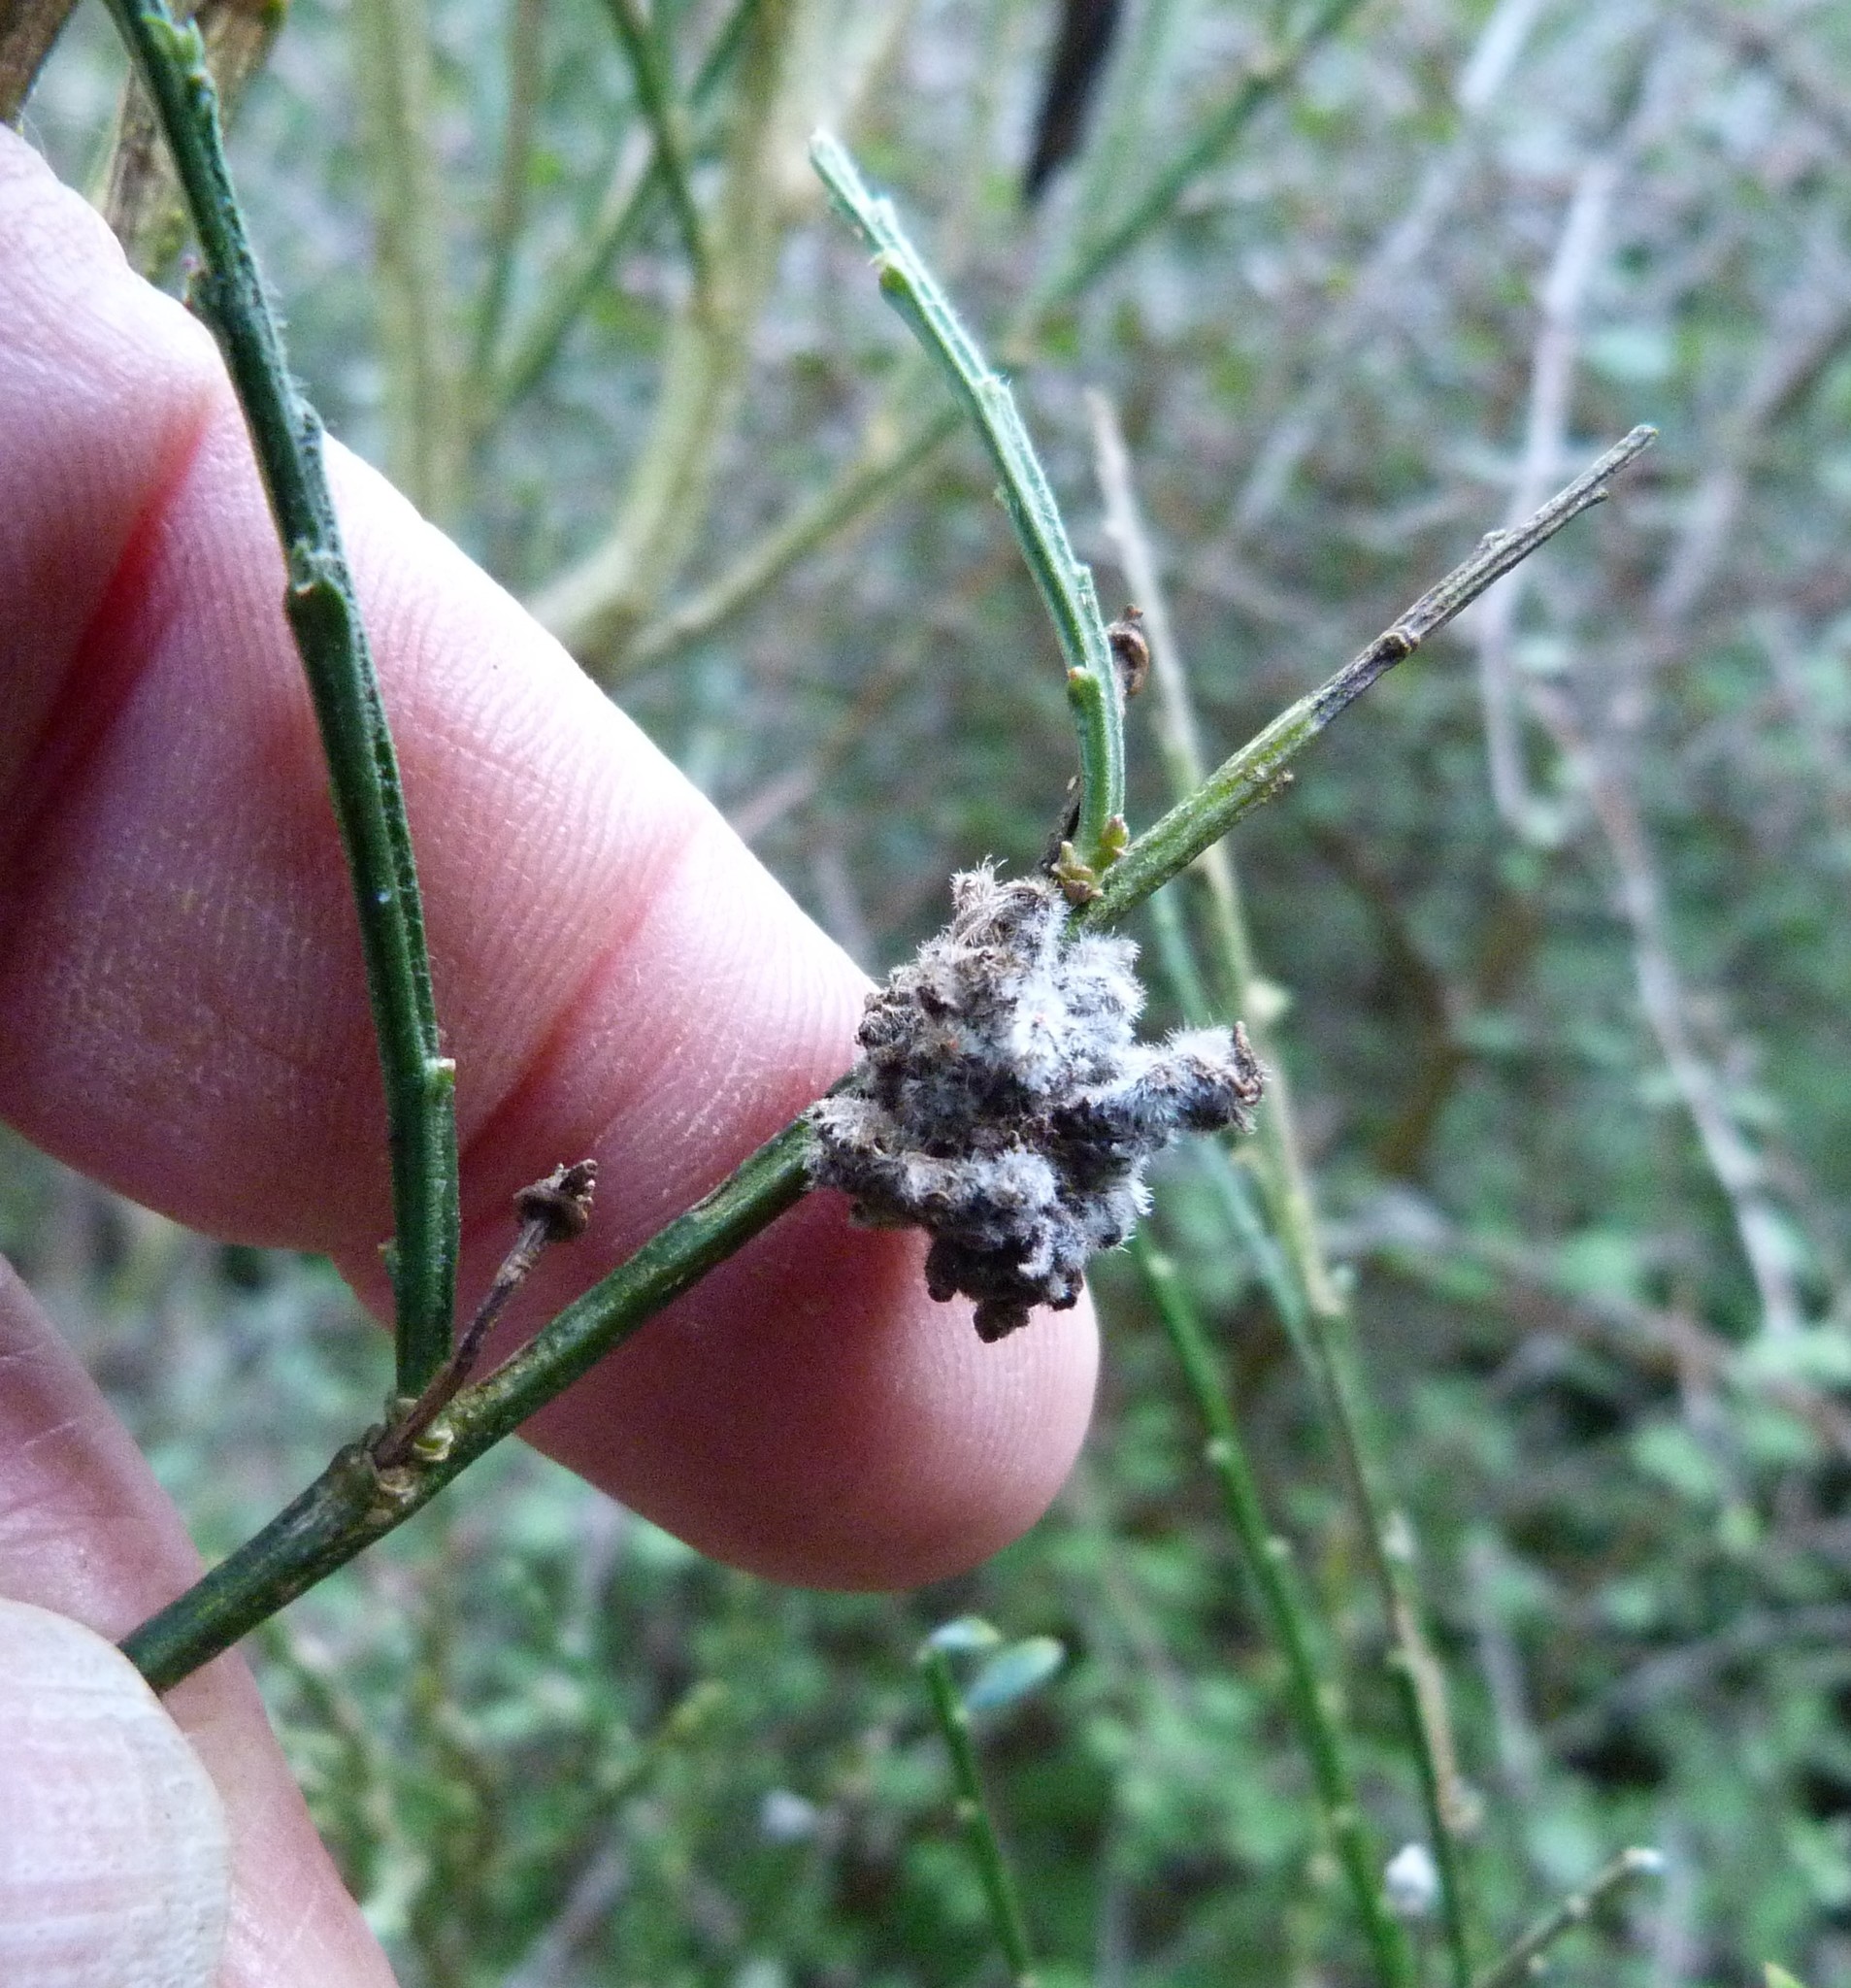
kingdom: Animalia
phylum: Arthropoda
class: Arachnida
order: Trombidiformes
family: Eriophyidae
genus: Aceria
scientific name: Aceria genistae
